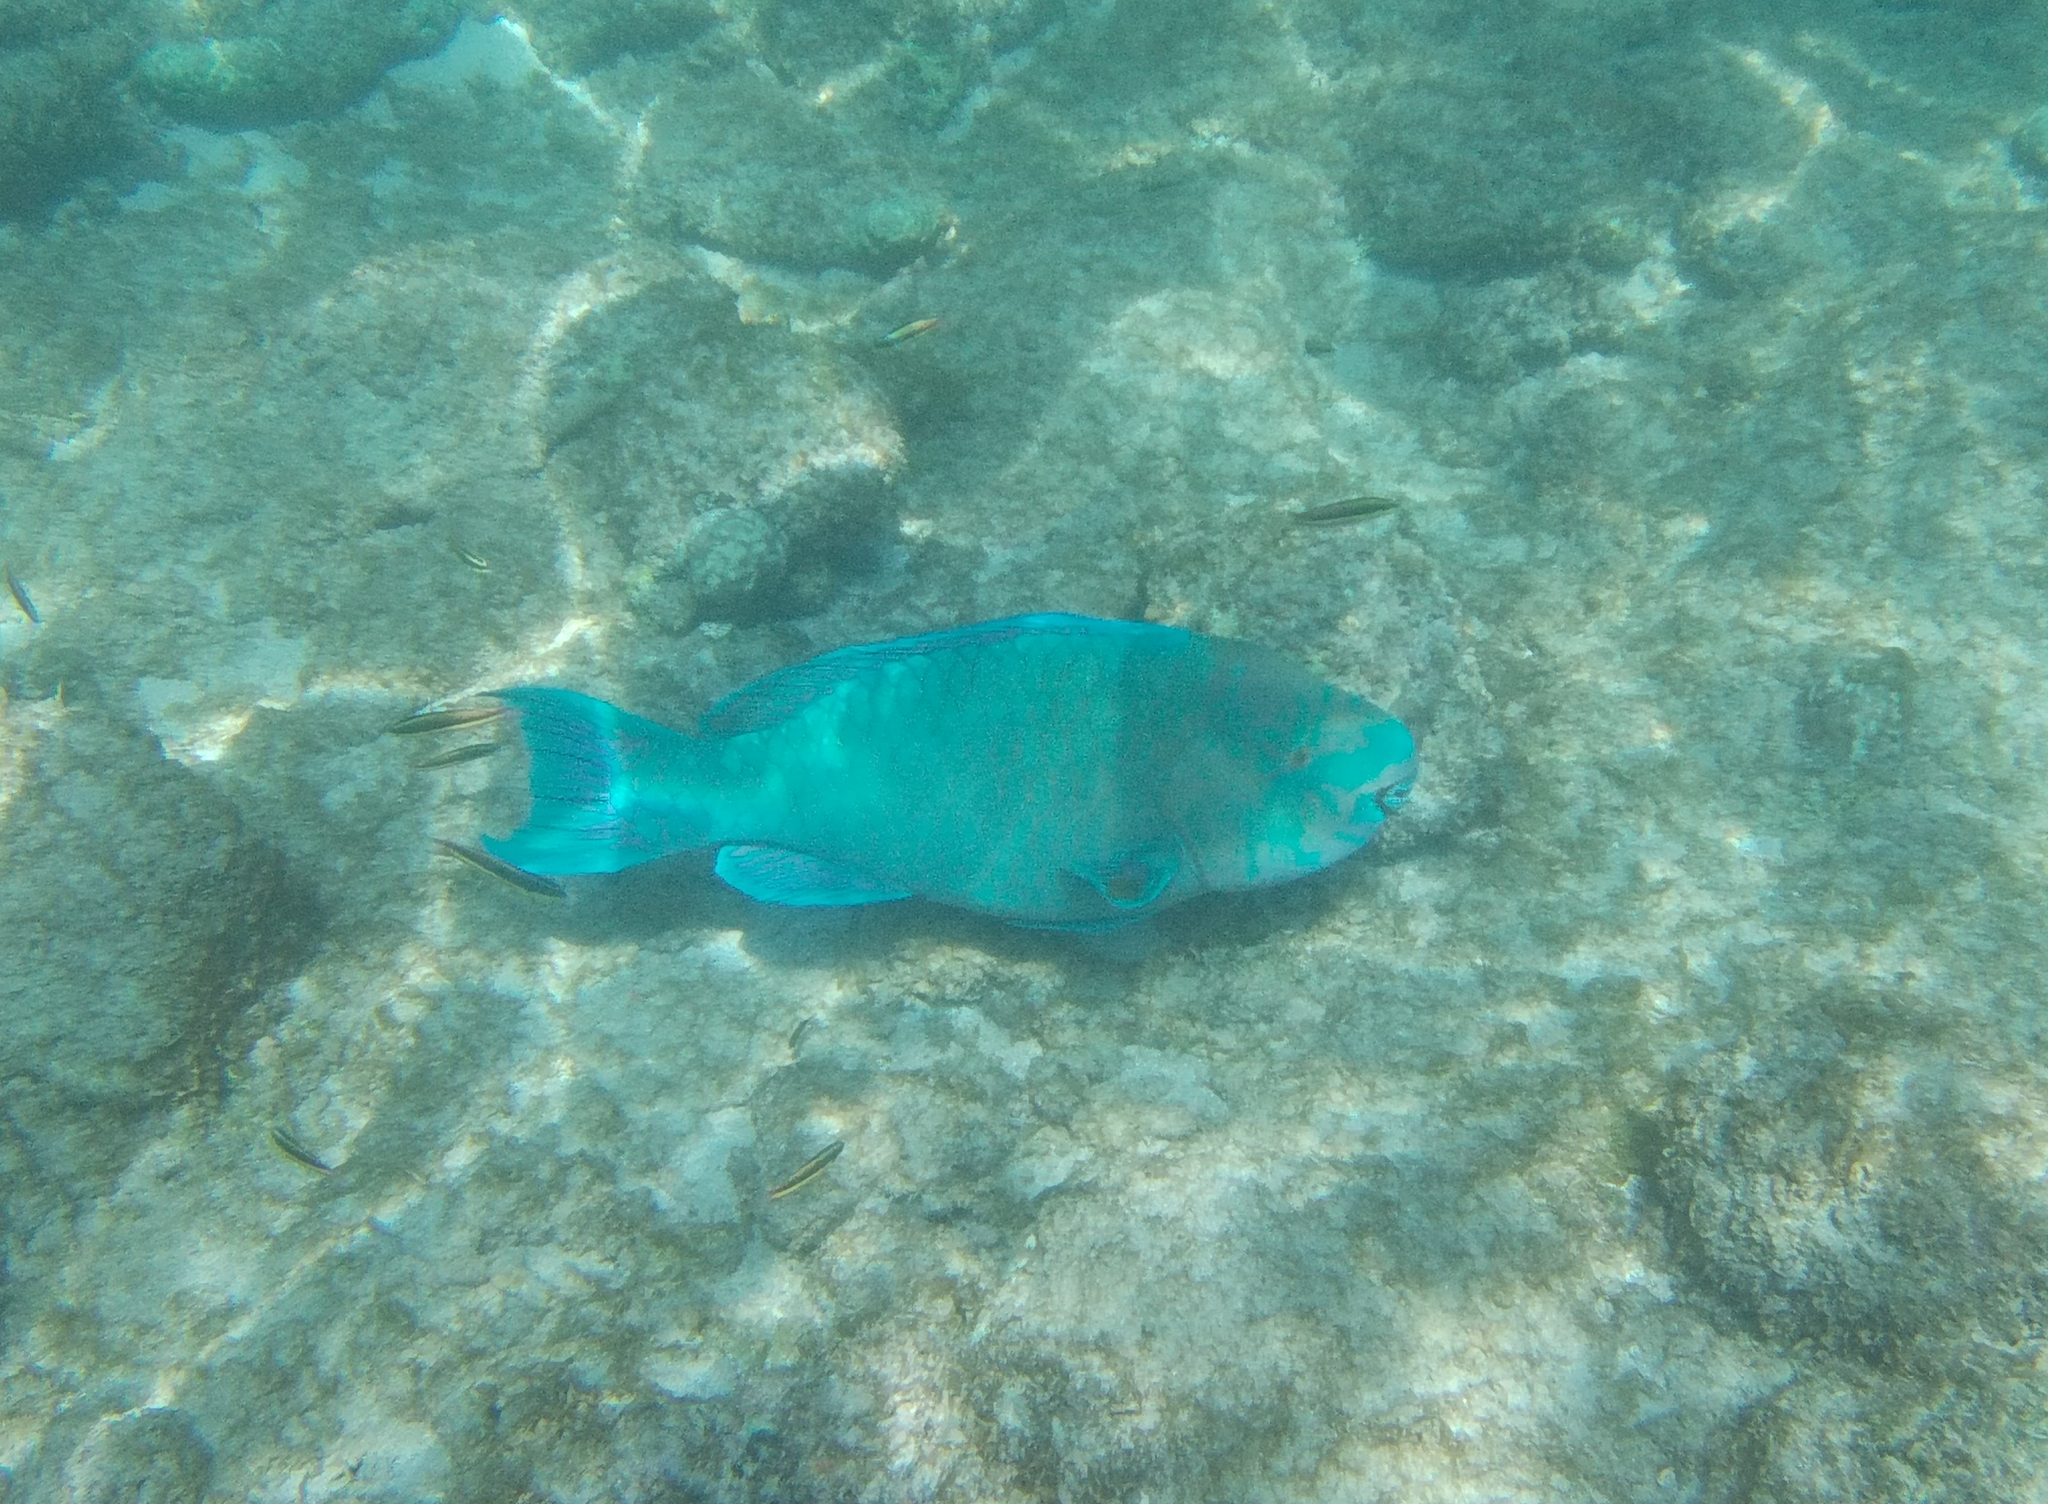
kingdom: Animalia
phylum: Chordata
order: Perciformes
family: Scaridae
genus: Scarus
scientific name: Scarus rubroviolaceus
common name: Ember parrotfish
